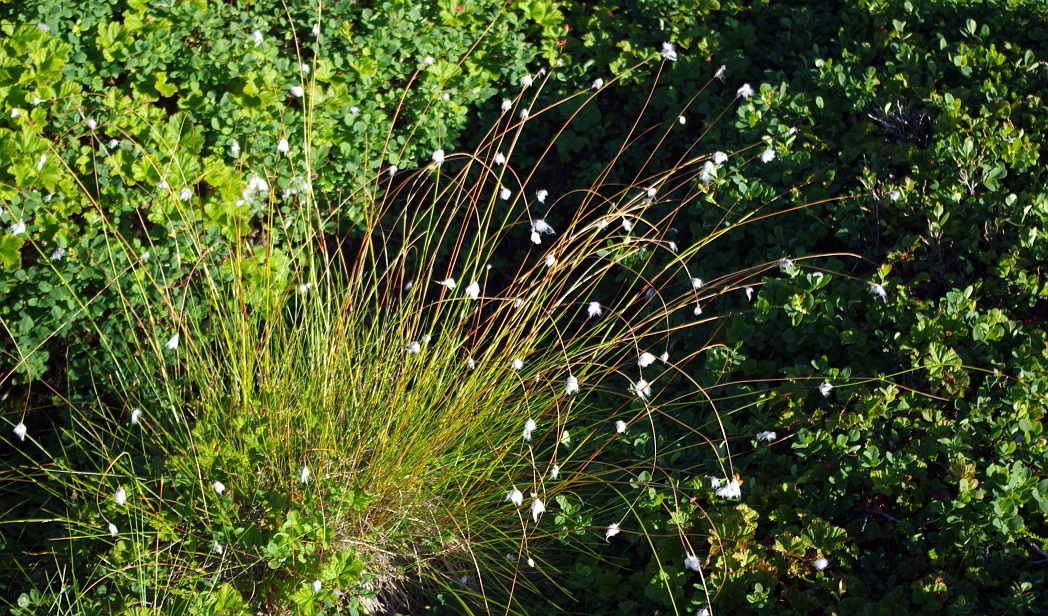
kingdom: Plantae
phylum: Tracheophyta
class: Liliopsida
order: Poales
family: Cyperaceae
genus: Trichophorum
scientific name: Trichophorum alpinum
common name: Alpine bulrush
